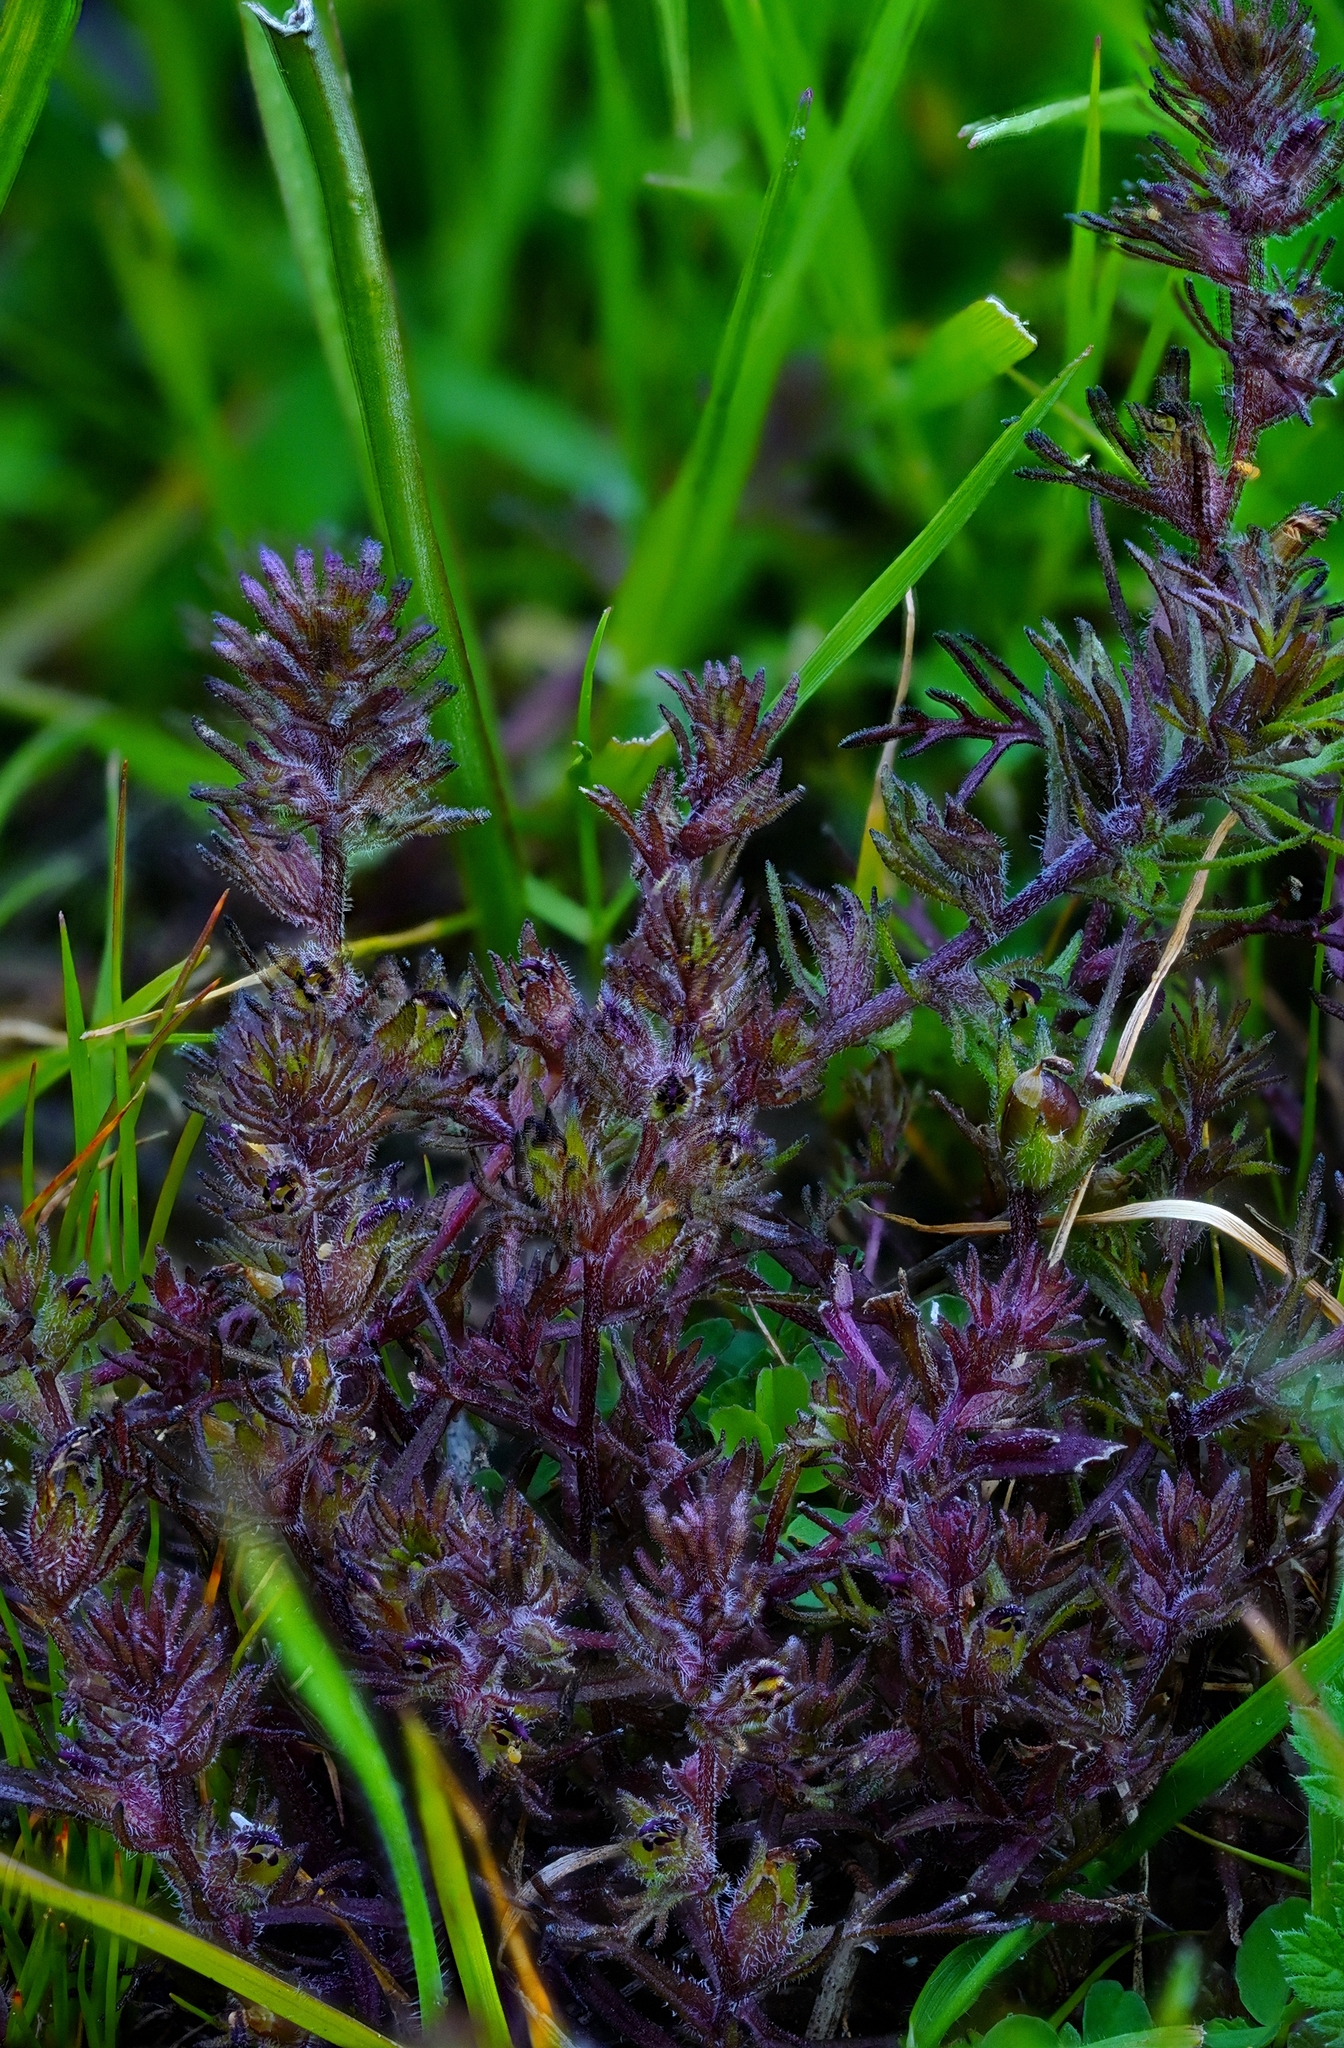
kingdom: Plantae
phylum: Tracheophyta
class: Magnoliopsida
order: Lamiales
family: Orobanchaceae
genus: Triphysaria
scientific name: Triphysaria pusilla
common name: Dwarf false owl-clover
